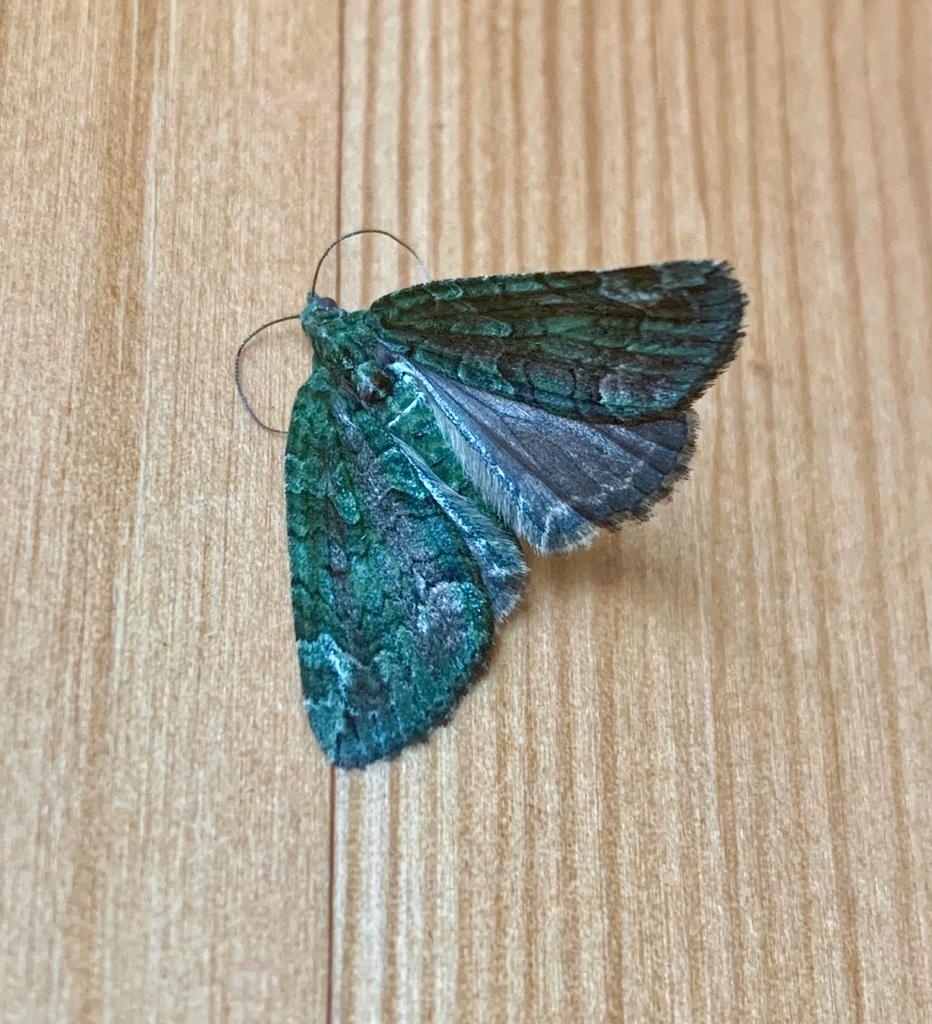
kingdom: Animalia
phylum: Arthropoda
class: Insecta
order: Lepidoptera
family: Geometridae
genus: Chloroclysta
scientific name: Chloroclysta siterata
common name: Red-green carpet
